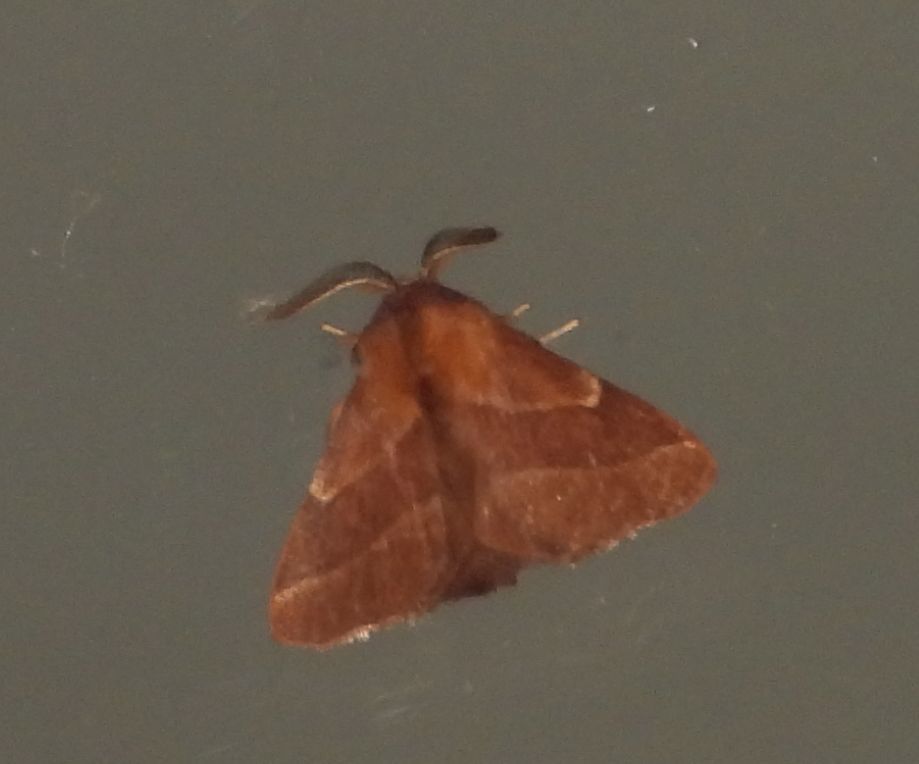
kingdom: Animalia
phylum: Arthropoda
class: Insecta
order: Lepidoptera
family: Lasiocampidae
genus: Malacosoma
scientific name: Malacosoma americana
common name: Eastern tent caterpillar moth
